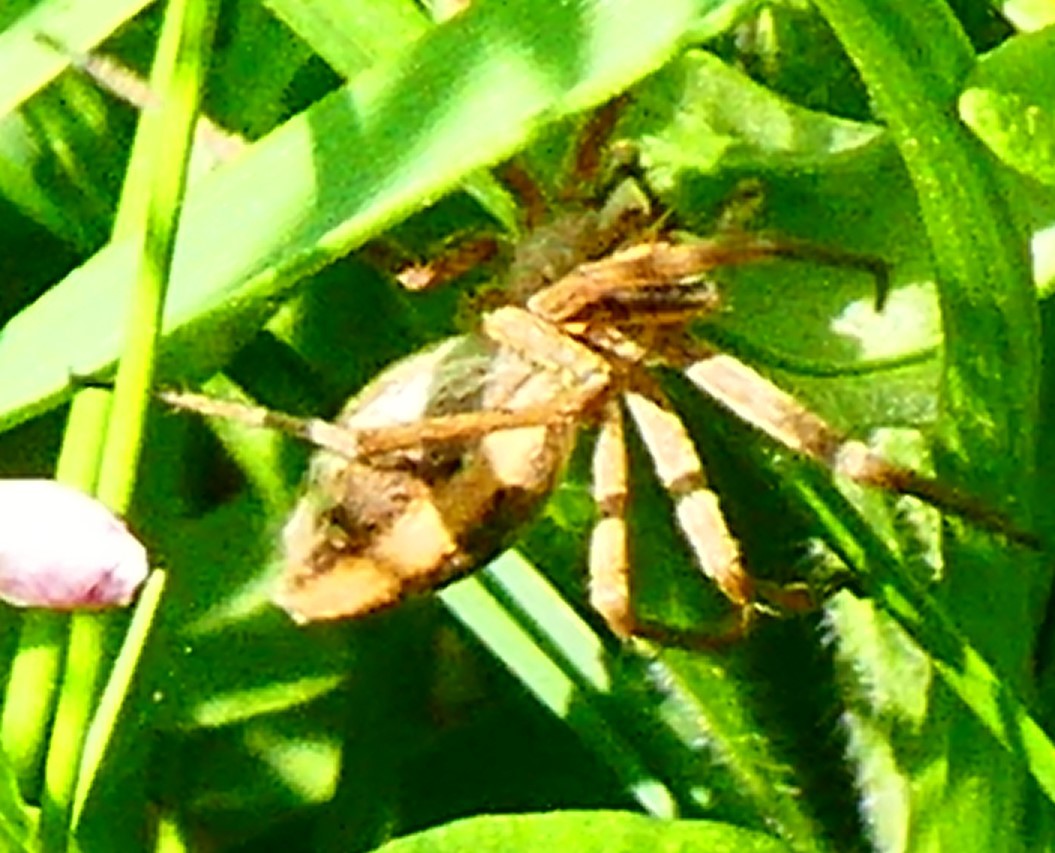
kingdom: Animalia
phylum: Arthropoda
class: Arachnida
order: Araneae
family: Pisauridae
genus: Pisaura
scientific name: Pisaura mirabilis
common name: Tent spider
